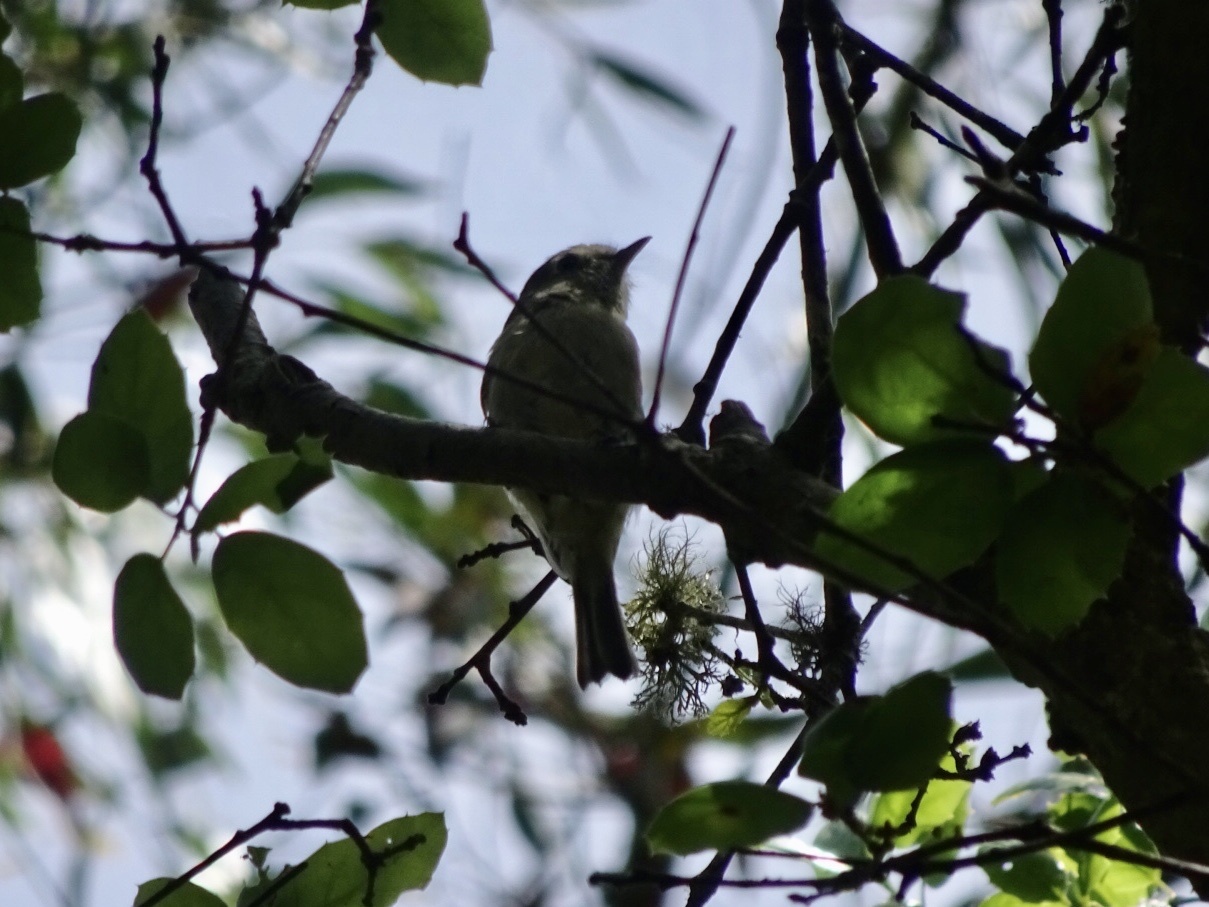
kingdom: Animalia
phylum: Chordata
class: Aves
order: Passeriformes
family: Regulidae
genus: Regulus
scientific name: Regulus calendula
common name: Ruby-crowned kinglet
